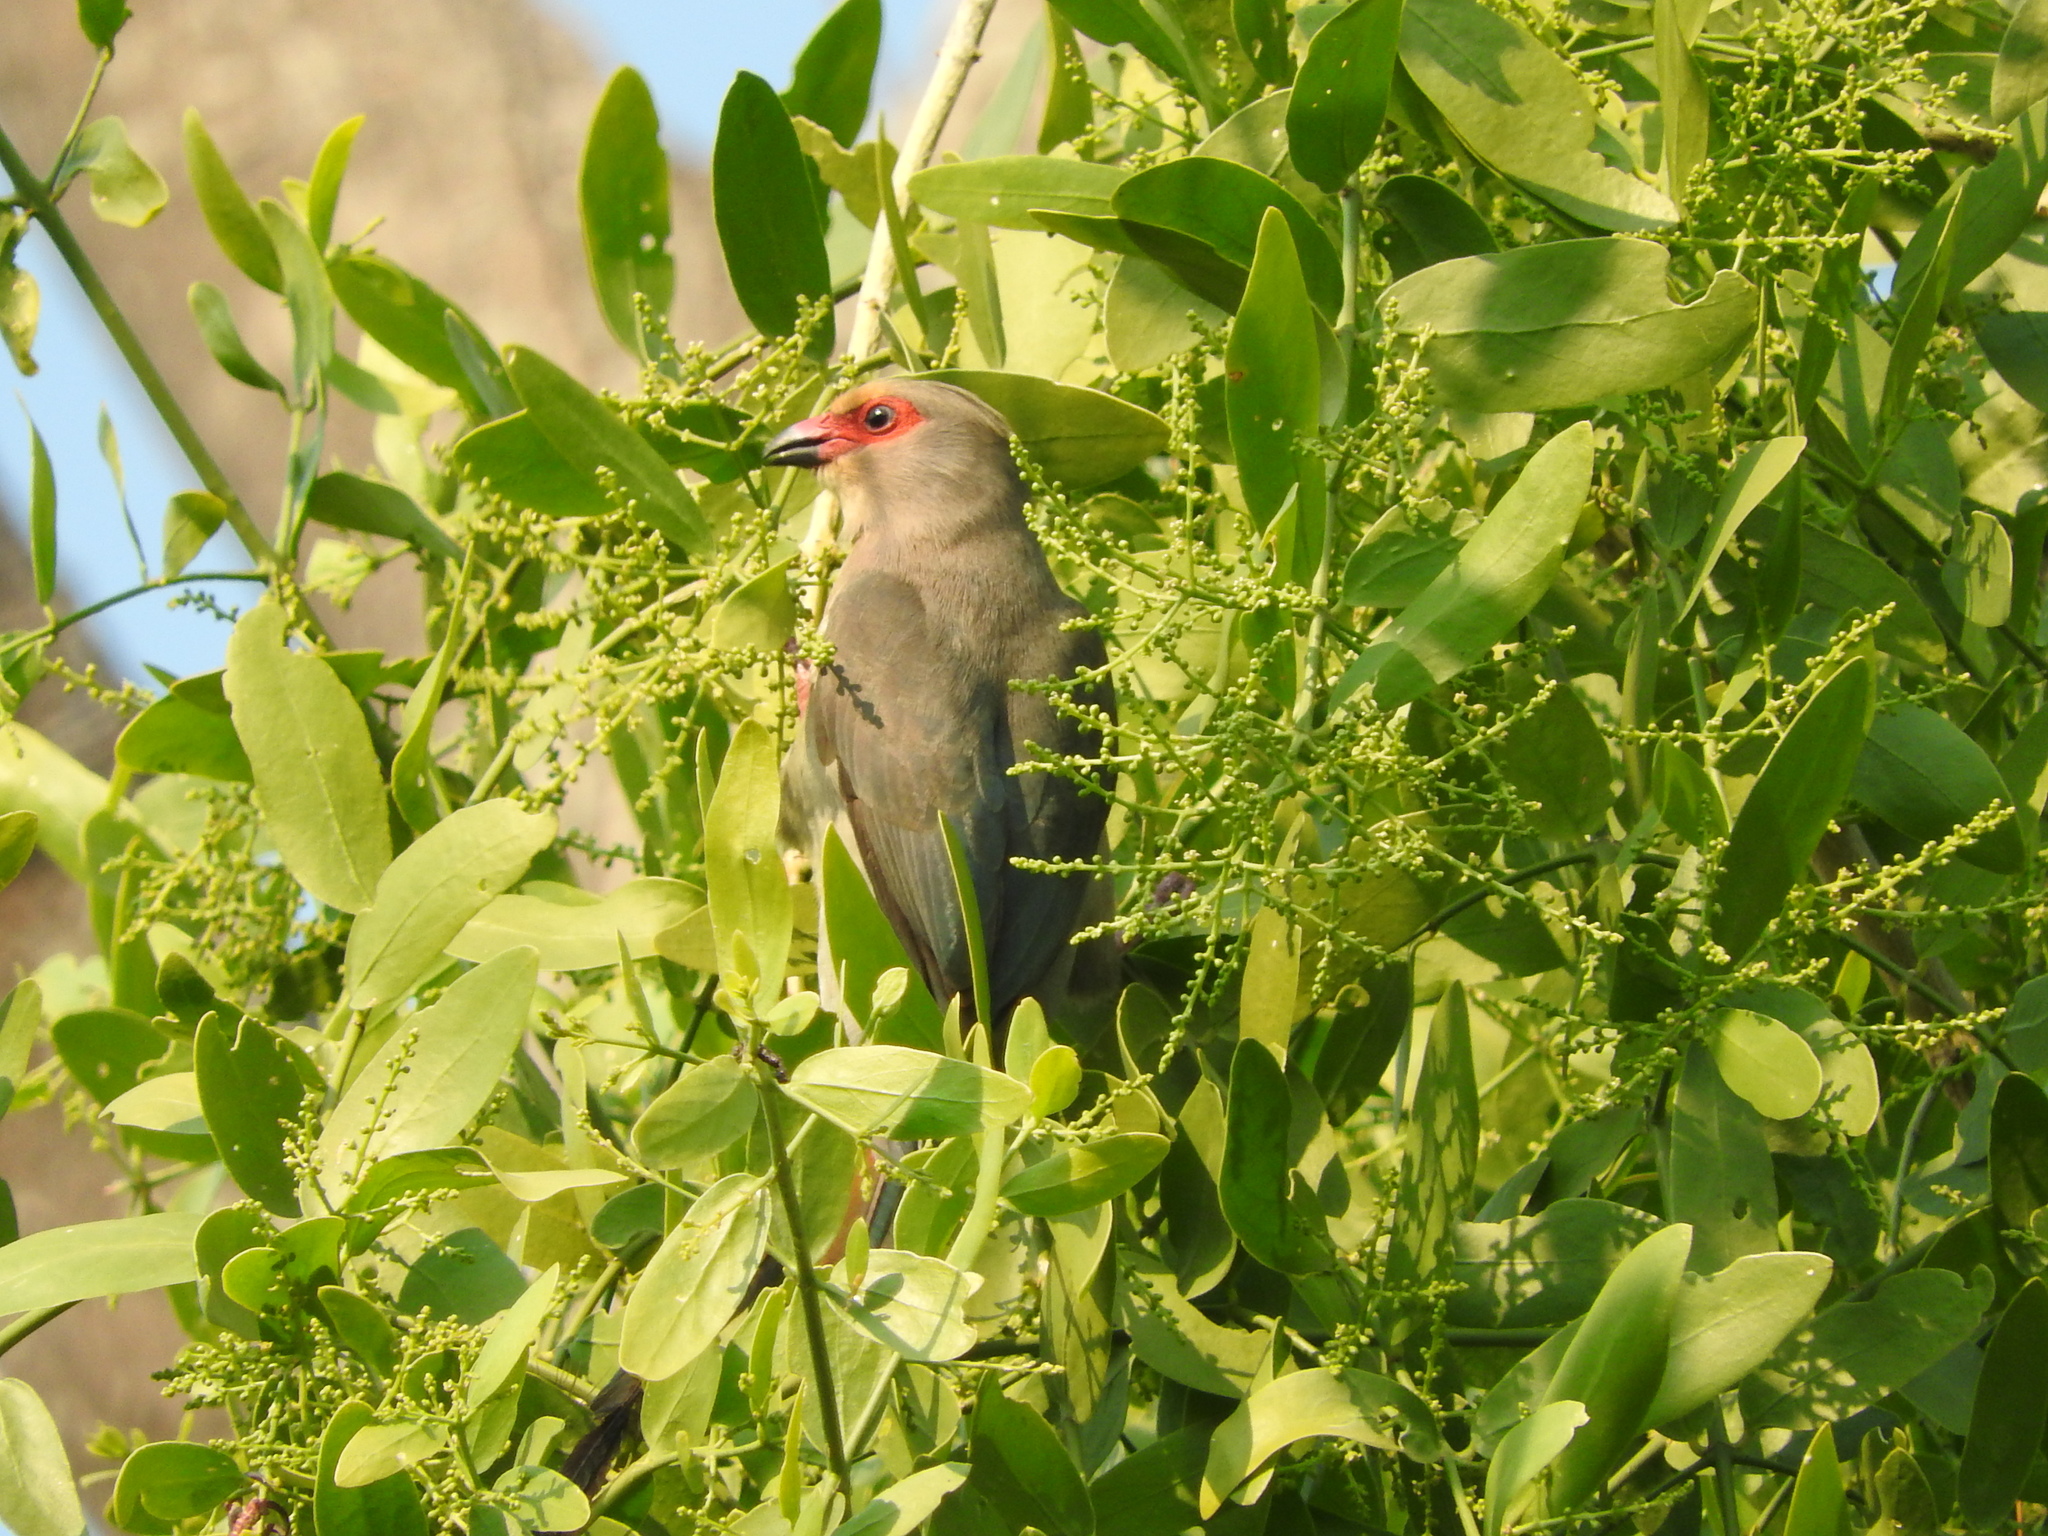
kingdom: Animalia
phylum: Chordata
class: Aves
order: Coliiformes
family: Coliidae
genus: Urocolius
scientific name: Urocolius indicus
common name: Red-faced mousebird
